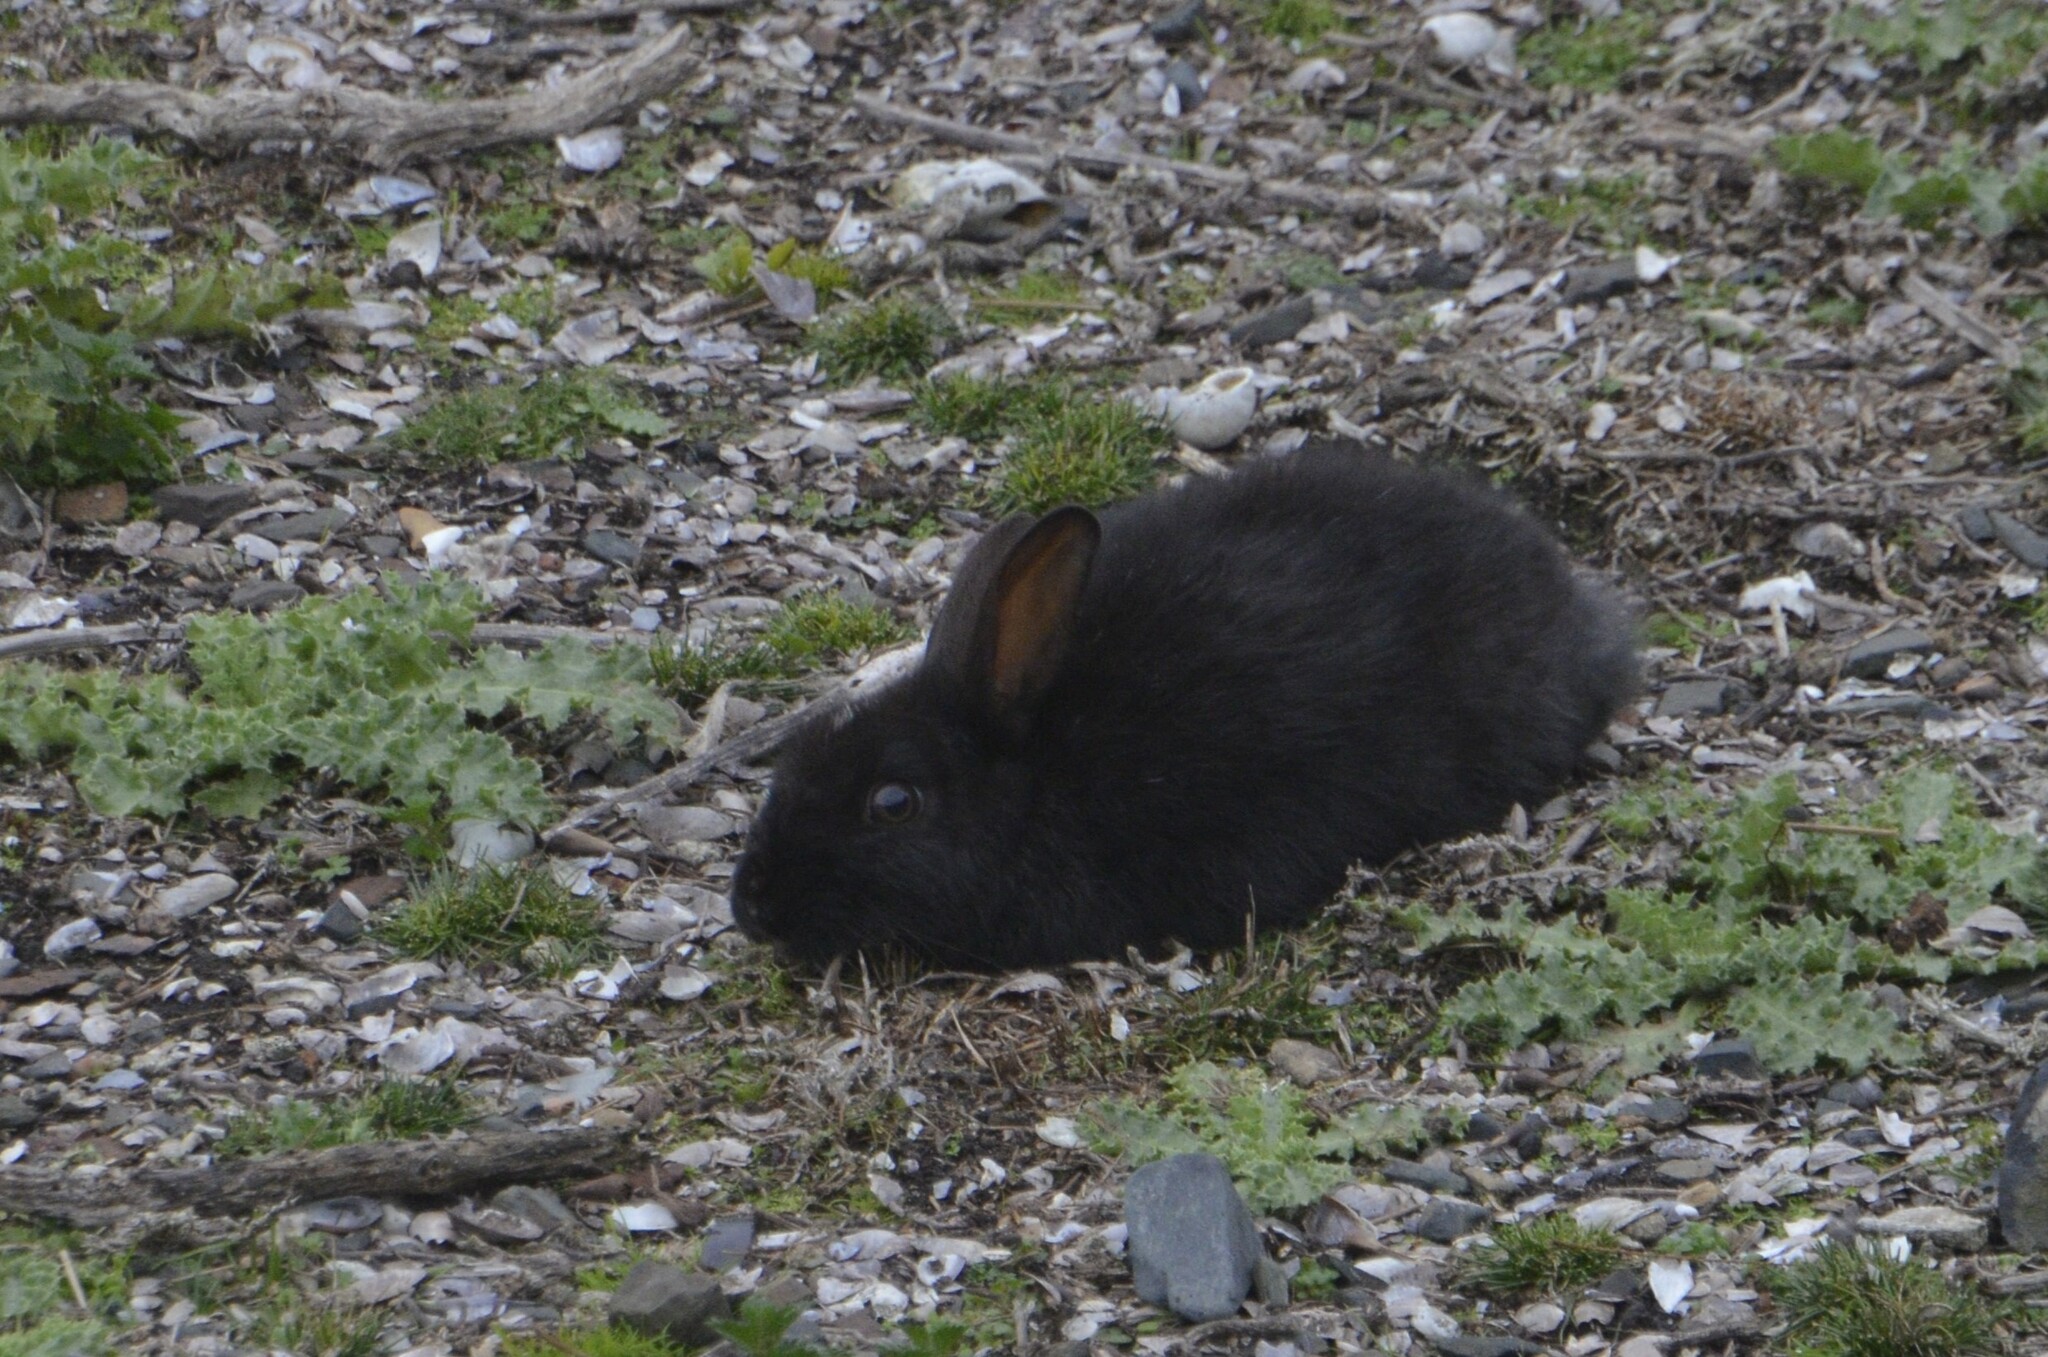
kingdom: Animalia
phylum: Chordata
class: Mammalia
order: Lagomorpha
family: Leporidae
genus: Oryctolagus
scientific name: Oryctolagus cuniculus
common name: European rabbit
